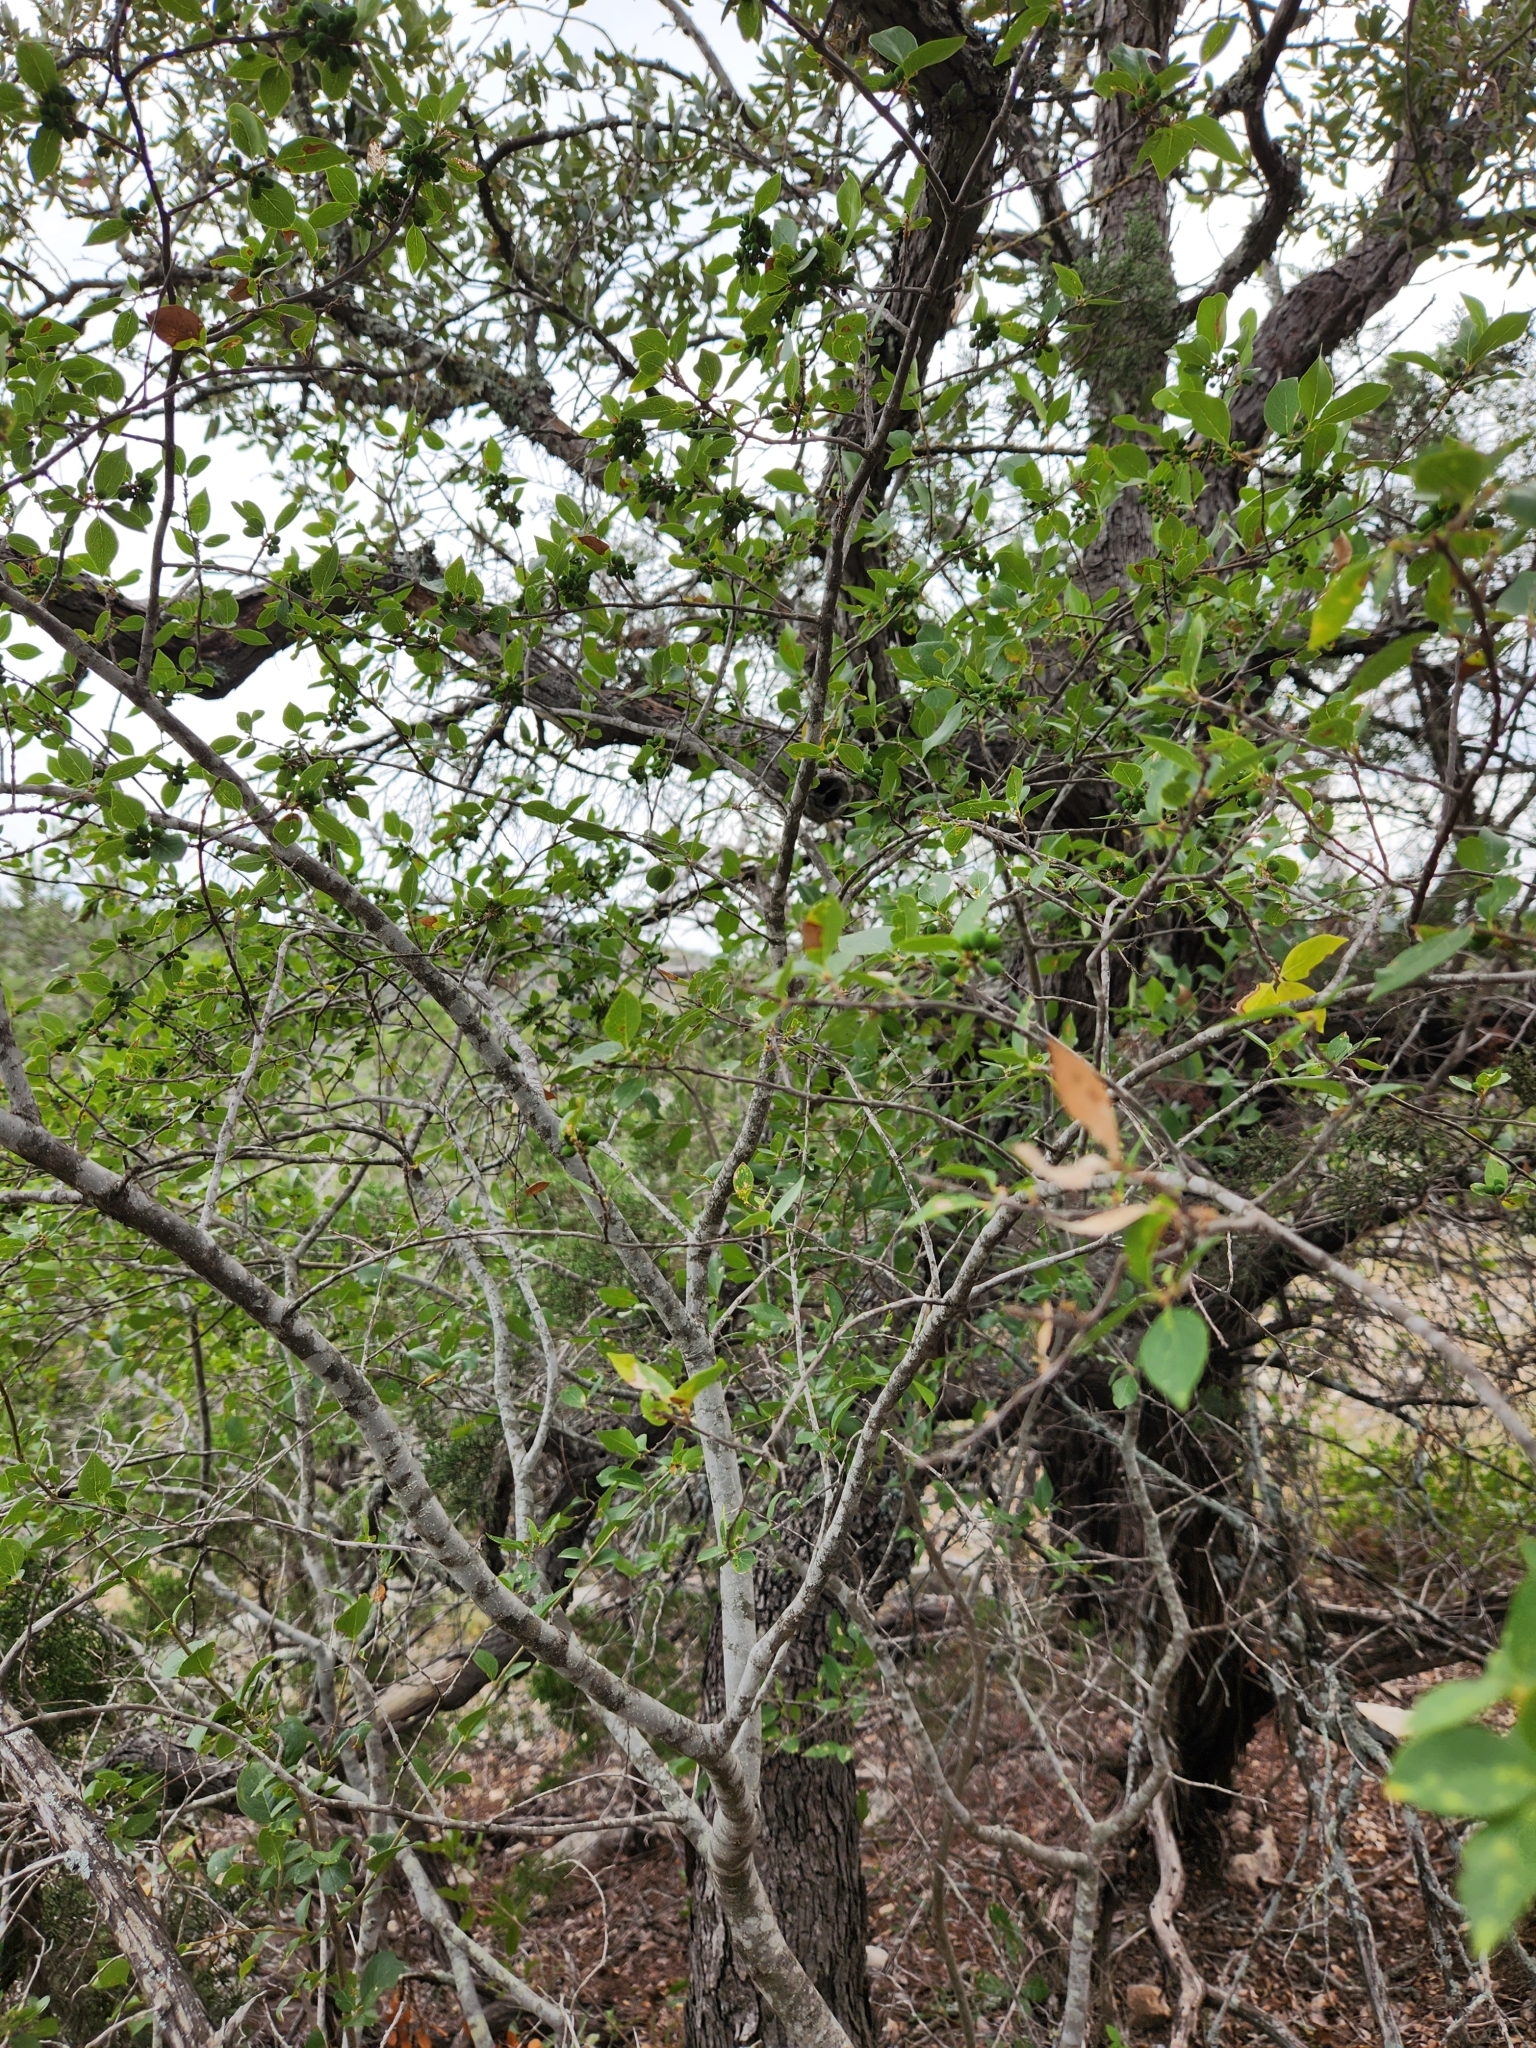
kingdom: Plantae
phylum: Tracheophyta
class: Magnoliopsida
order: Lamiales
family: Oleaceae
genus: Forestiera
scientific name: Forestiera reticulata
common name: Netleaf swamp-privet
